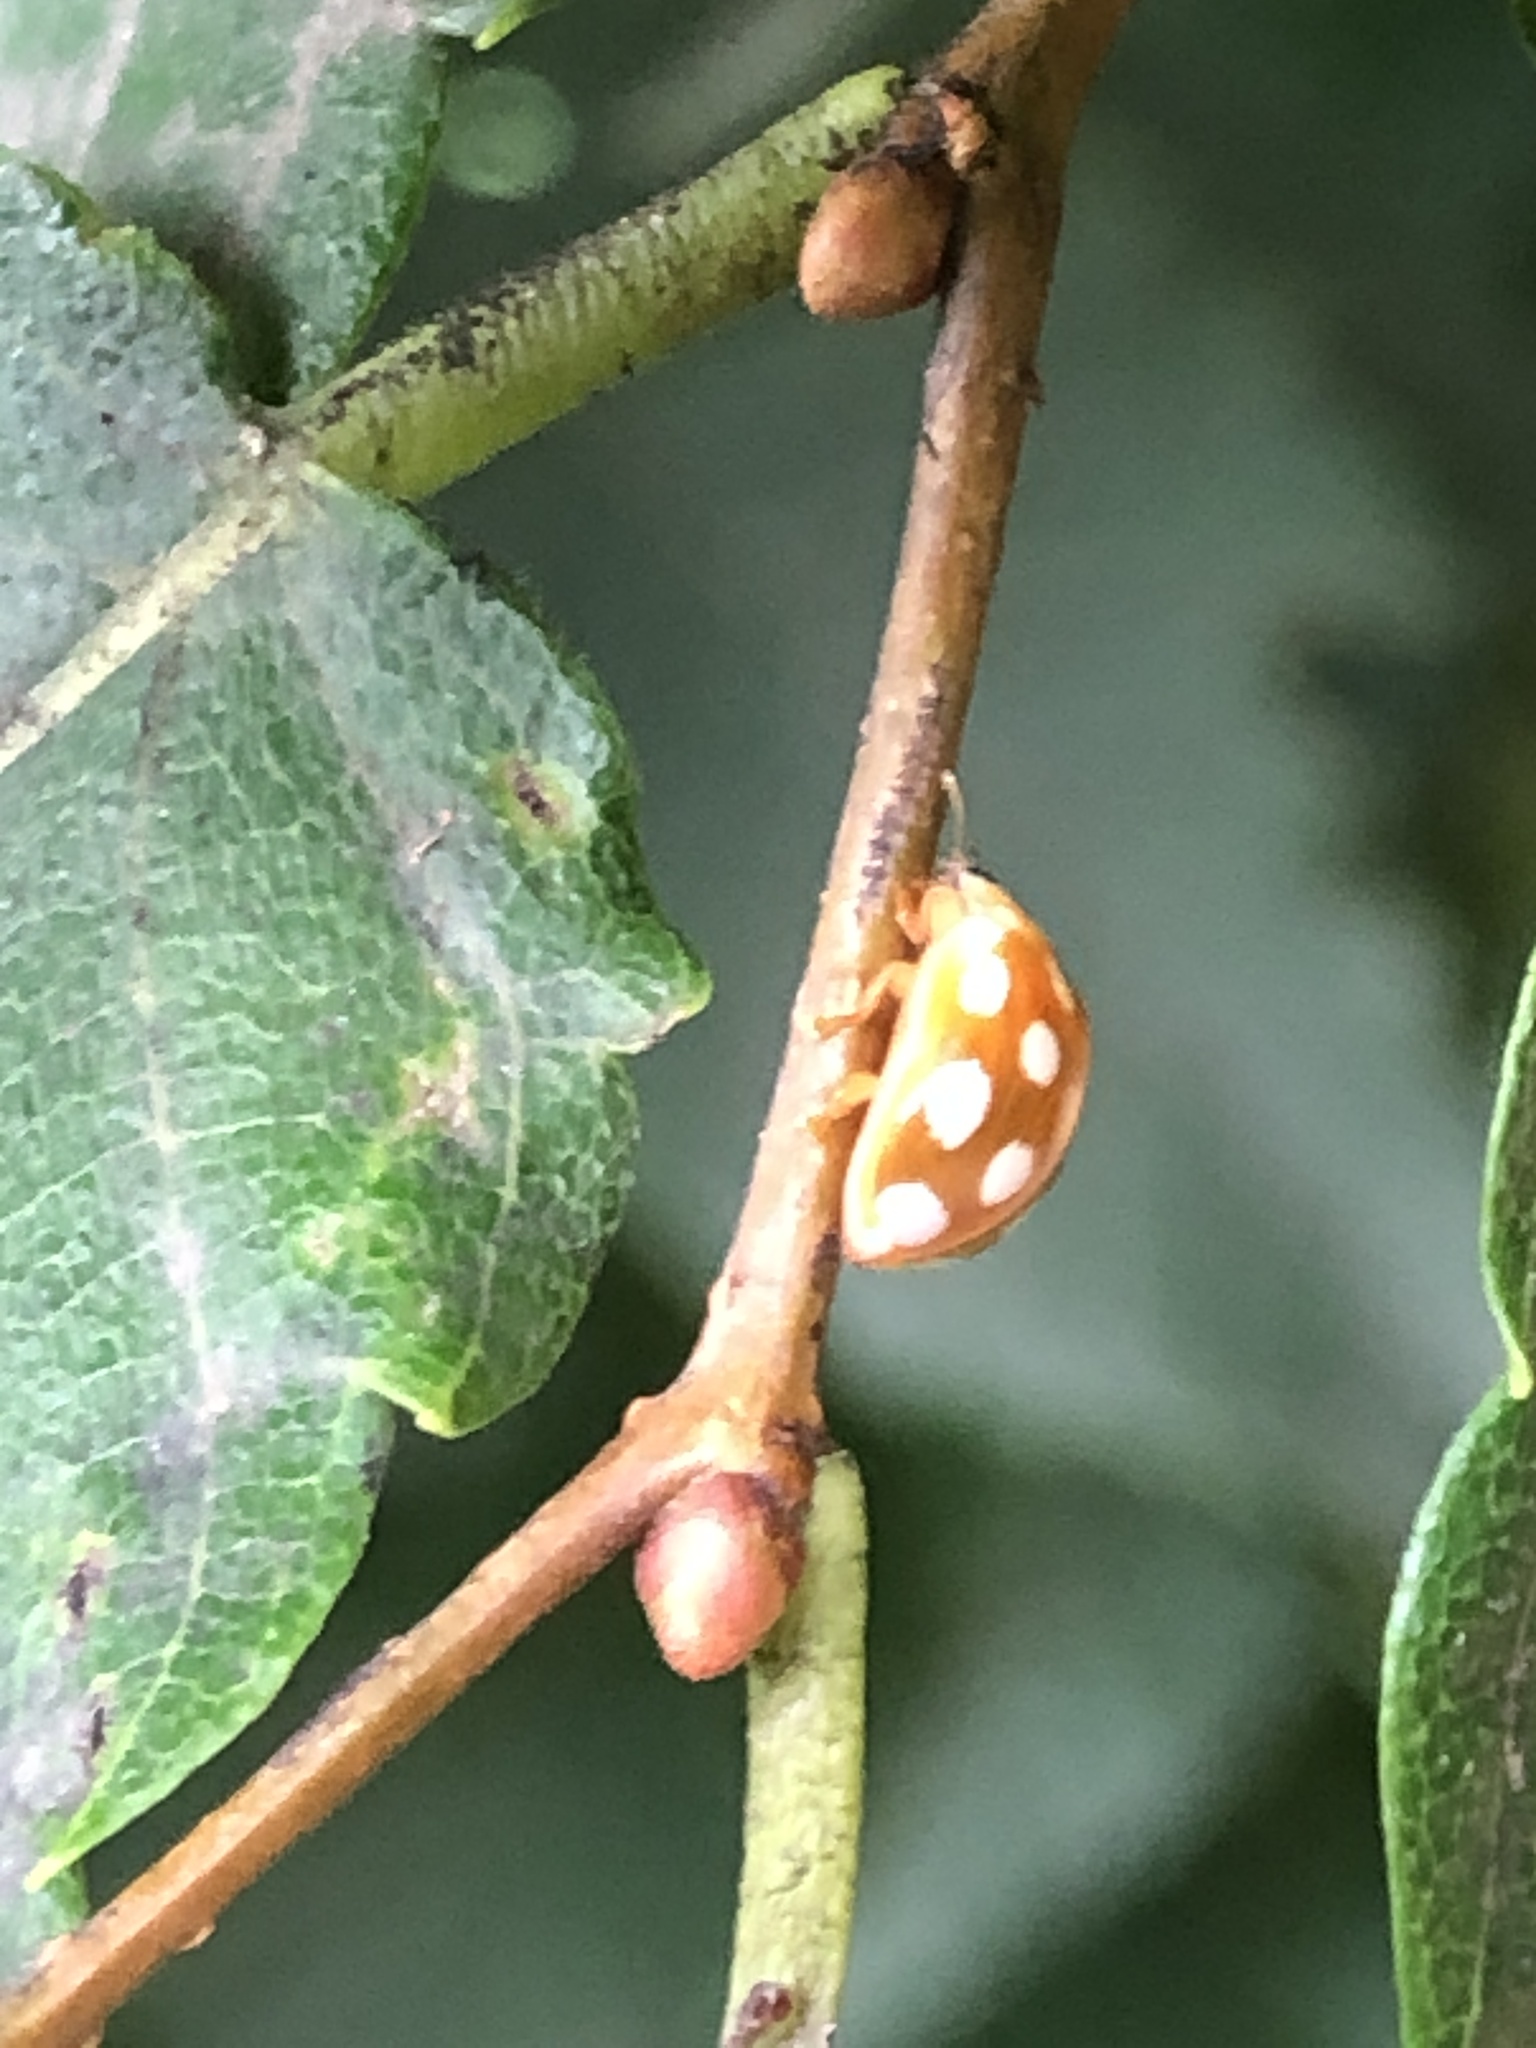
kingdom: Animalia
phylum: Arthropoda
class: Insecta
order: Coleoptera
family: Coccinellidae
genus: Calvia
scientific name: Calvia muiri
